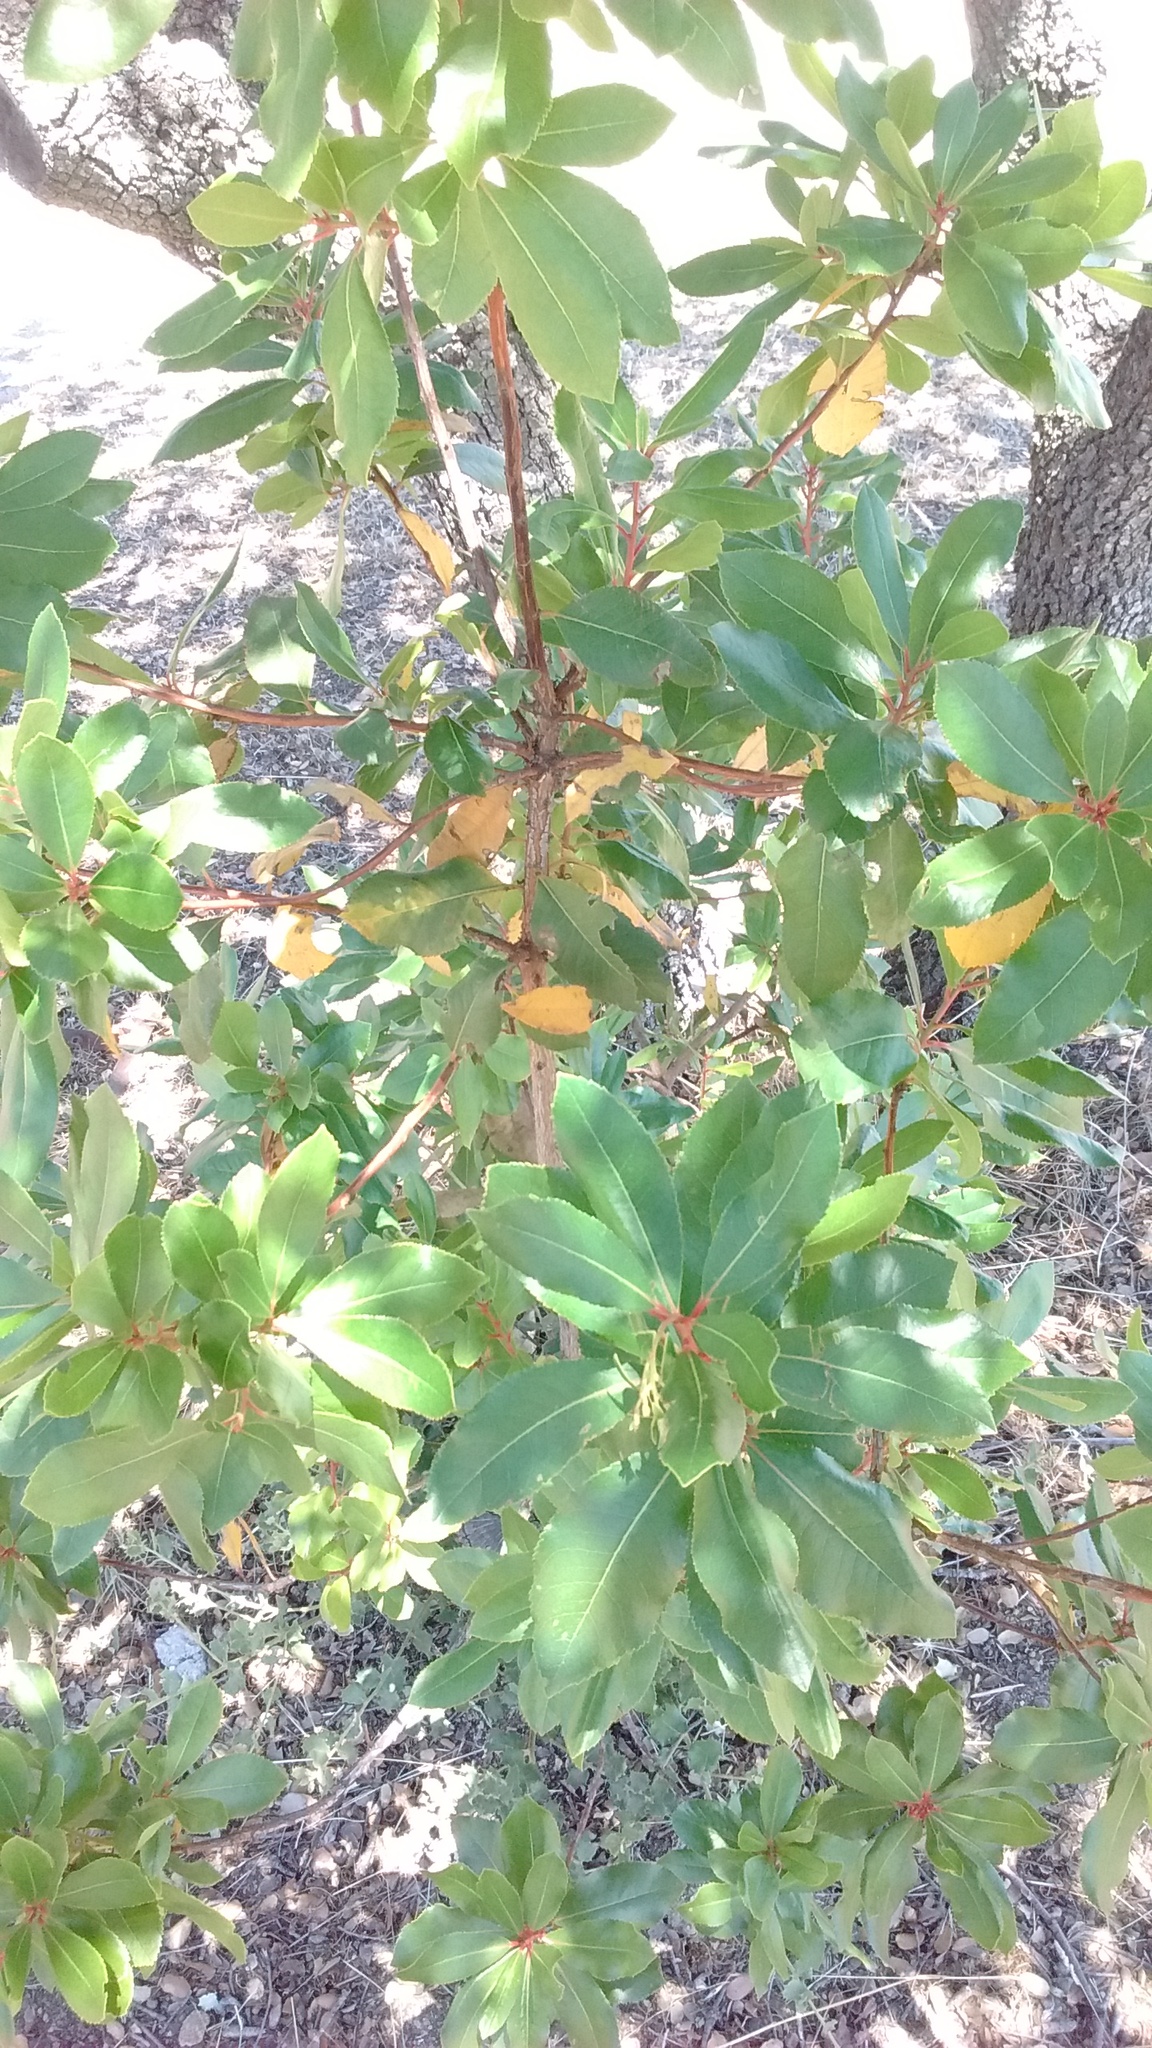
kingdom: Plantae
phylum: Tracheophyta
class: Magnoliopsida
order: Ericales
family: Ericaceae
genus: Arbutus
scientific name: Arbutus unedo
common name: Strawberry-tree
